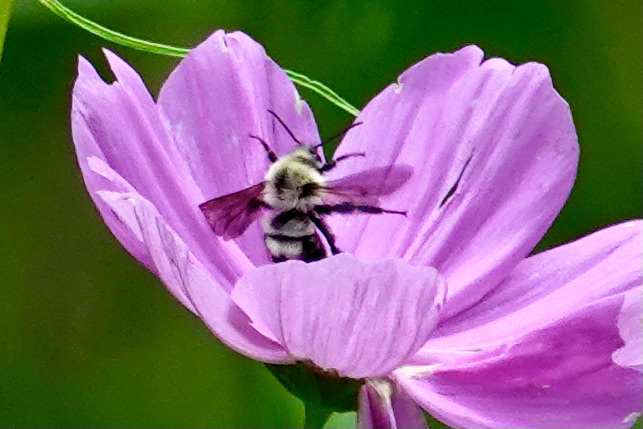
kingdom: Animalia
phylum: Arthropoda
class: Insecta
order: Hymenoptera
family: Apidae
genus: Bombus
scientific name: Bombus bimaculatus
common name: Two-spotted bumble bee
